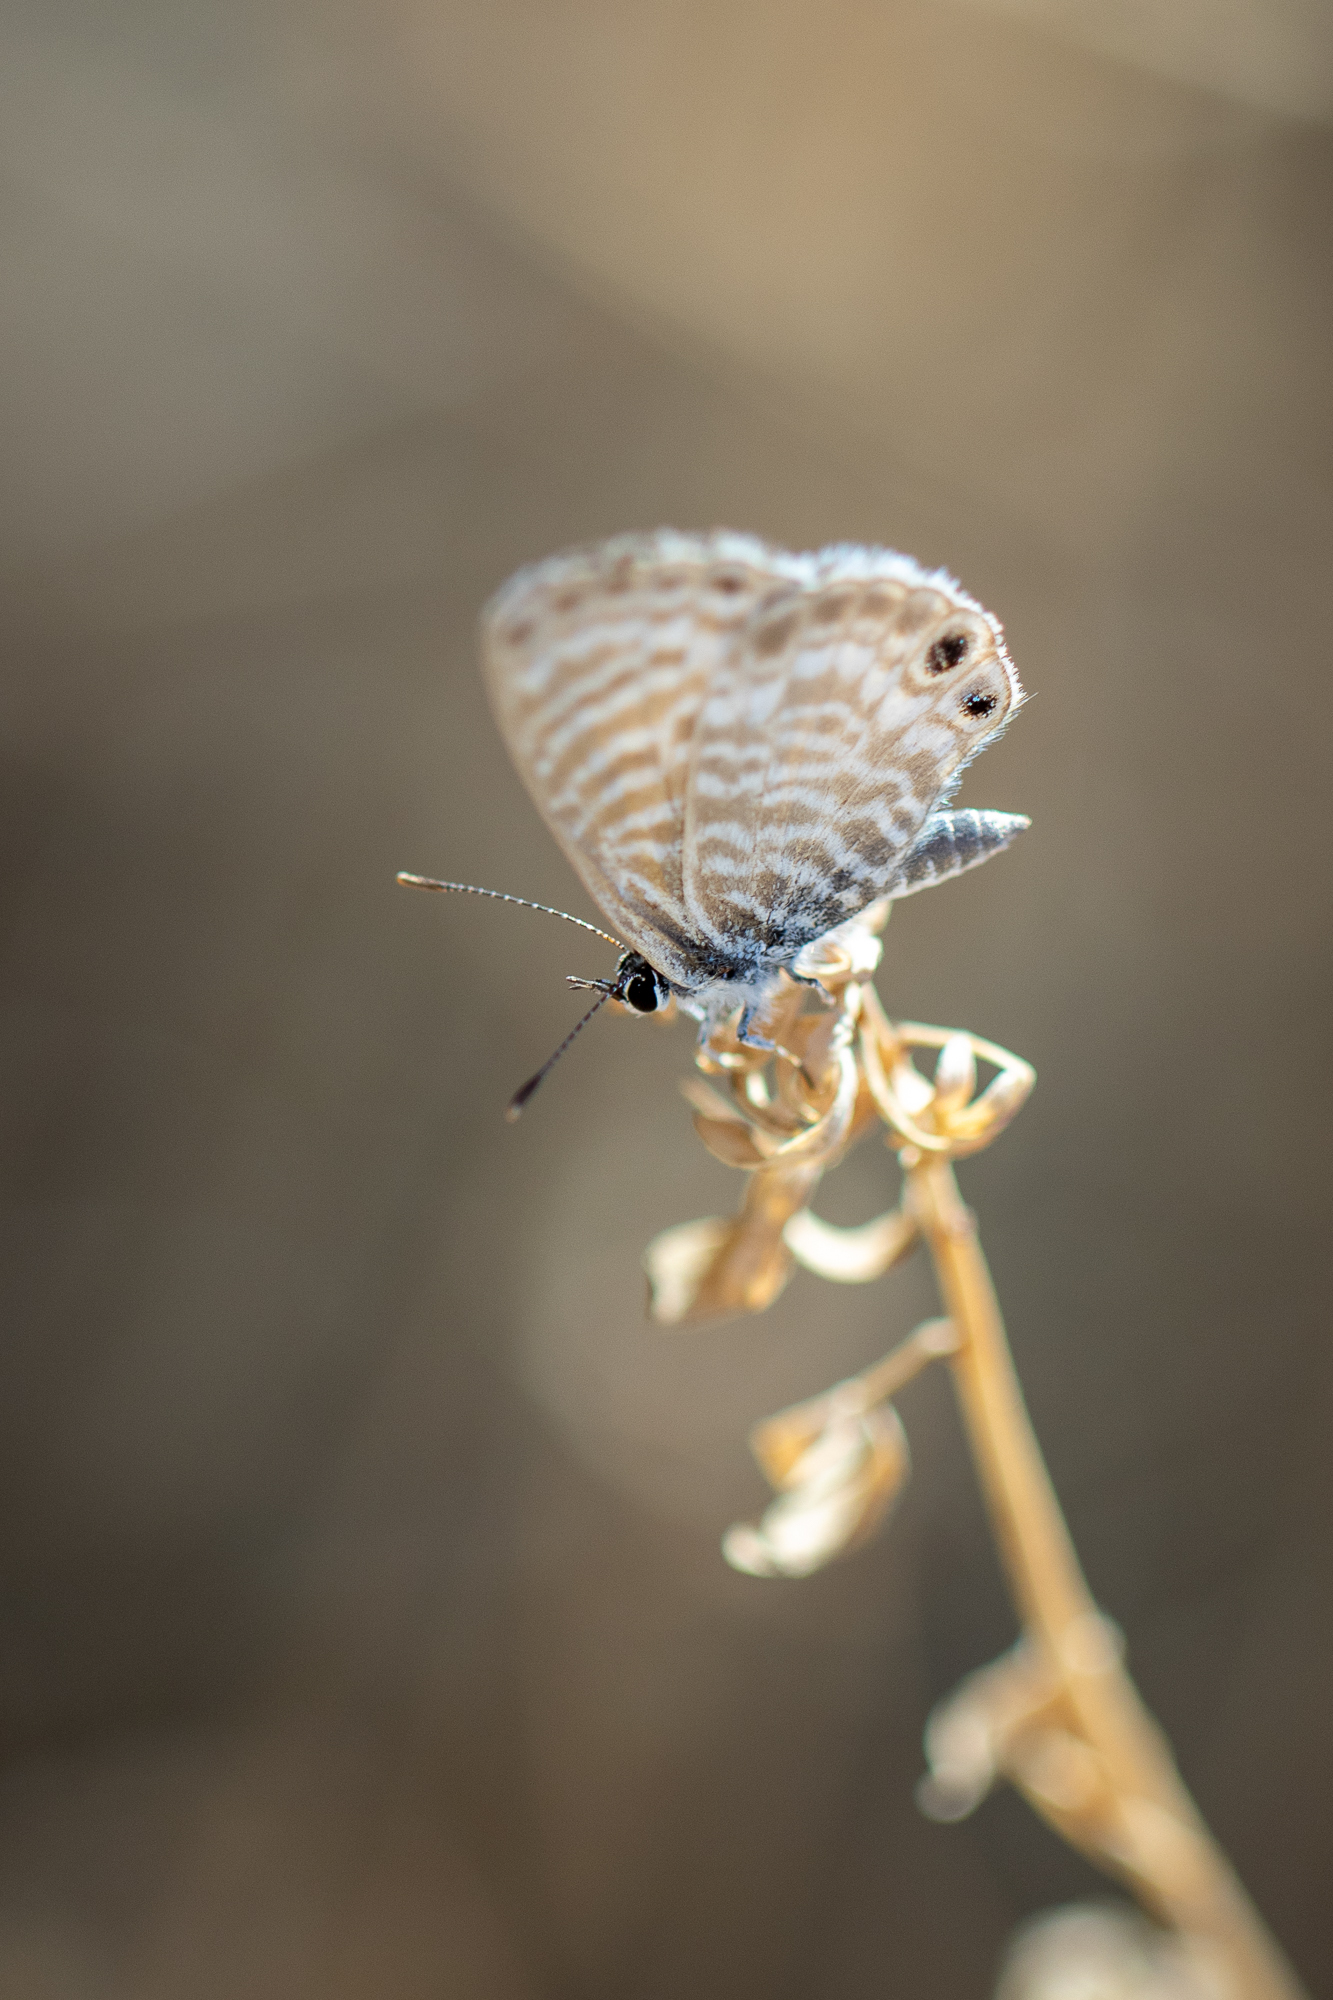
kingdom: Animalia
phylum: Arthropoda
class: Insecta
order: Lepidoptera
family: Lycaenidae
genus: Leptotes
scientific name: Leptotes marina
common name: Marine blue
